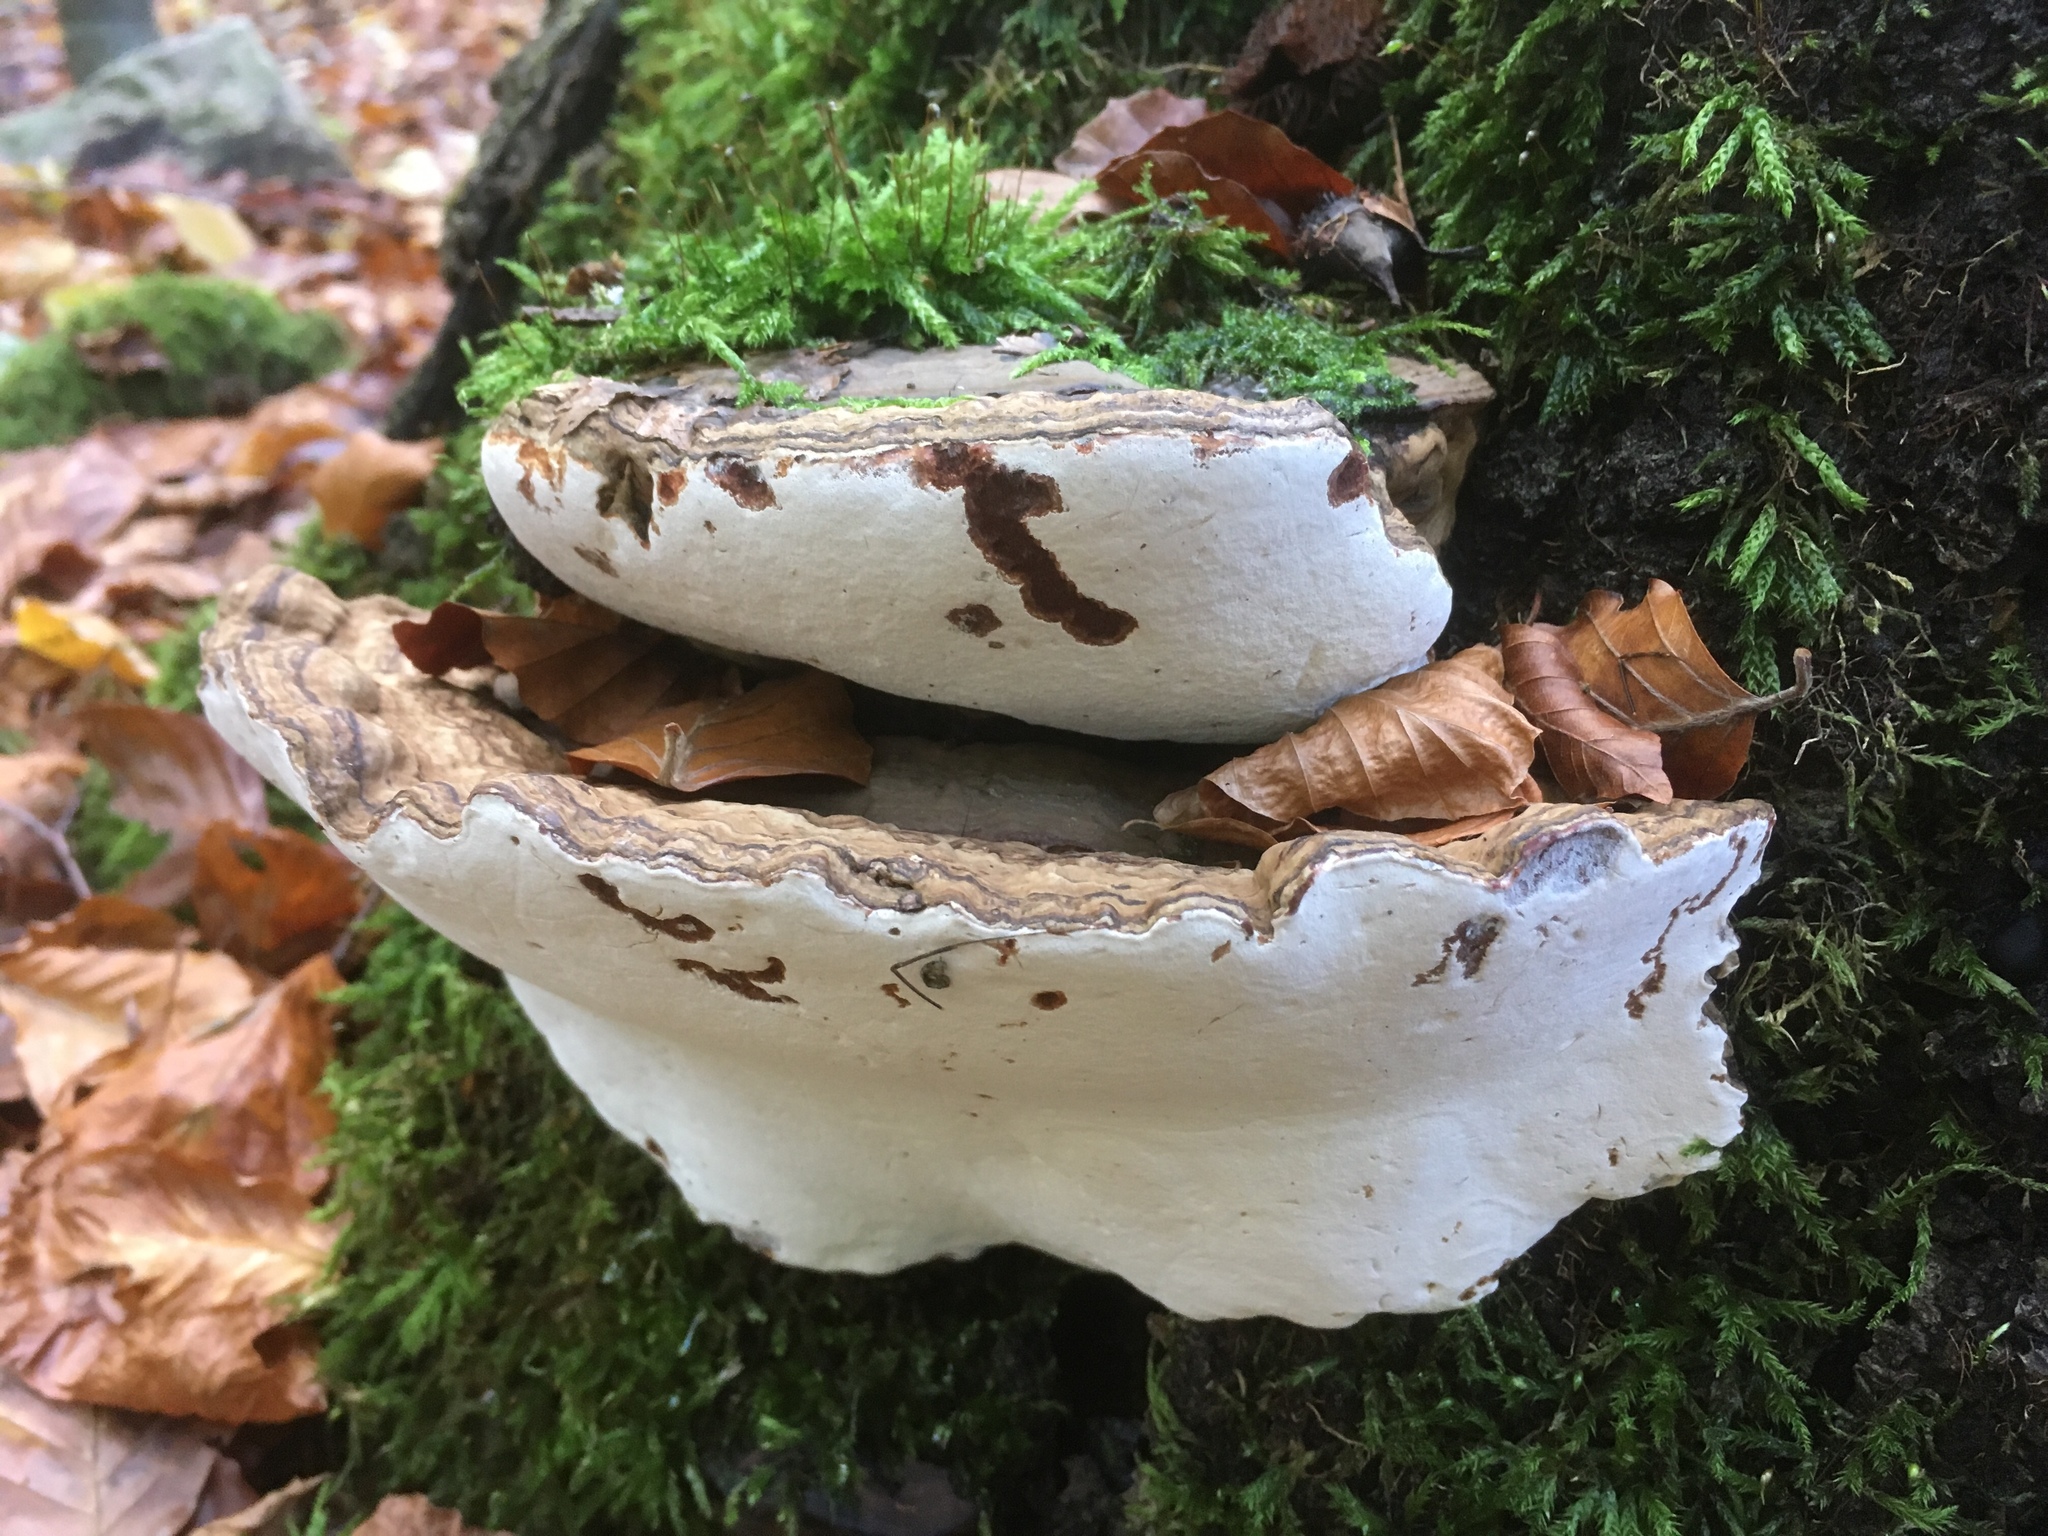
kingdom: Fungi
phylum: Basidiomycota
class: Agaricomycetes
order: Polyporales
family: Polyporaceae
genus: Ganoderma
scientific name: Ganoderma applanatum
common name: Artist's bracket
